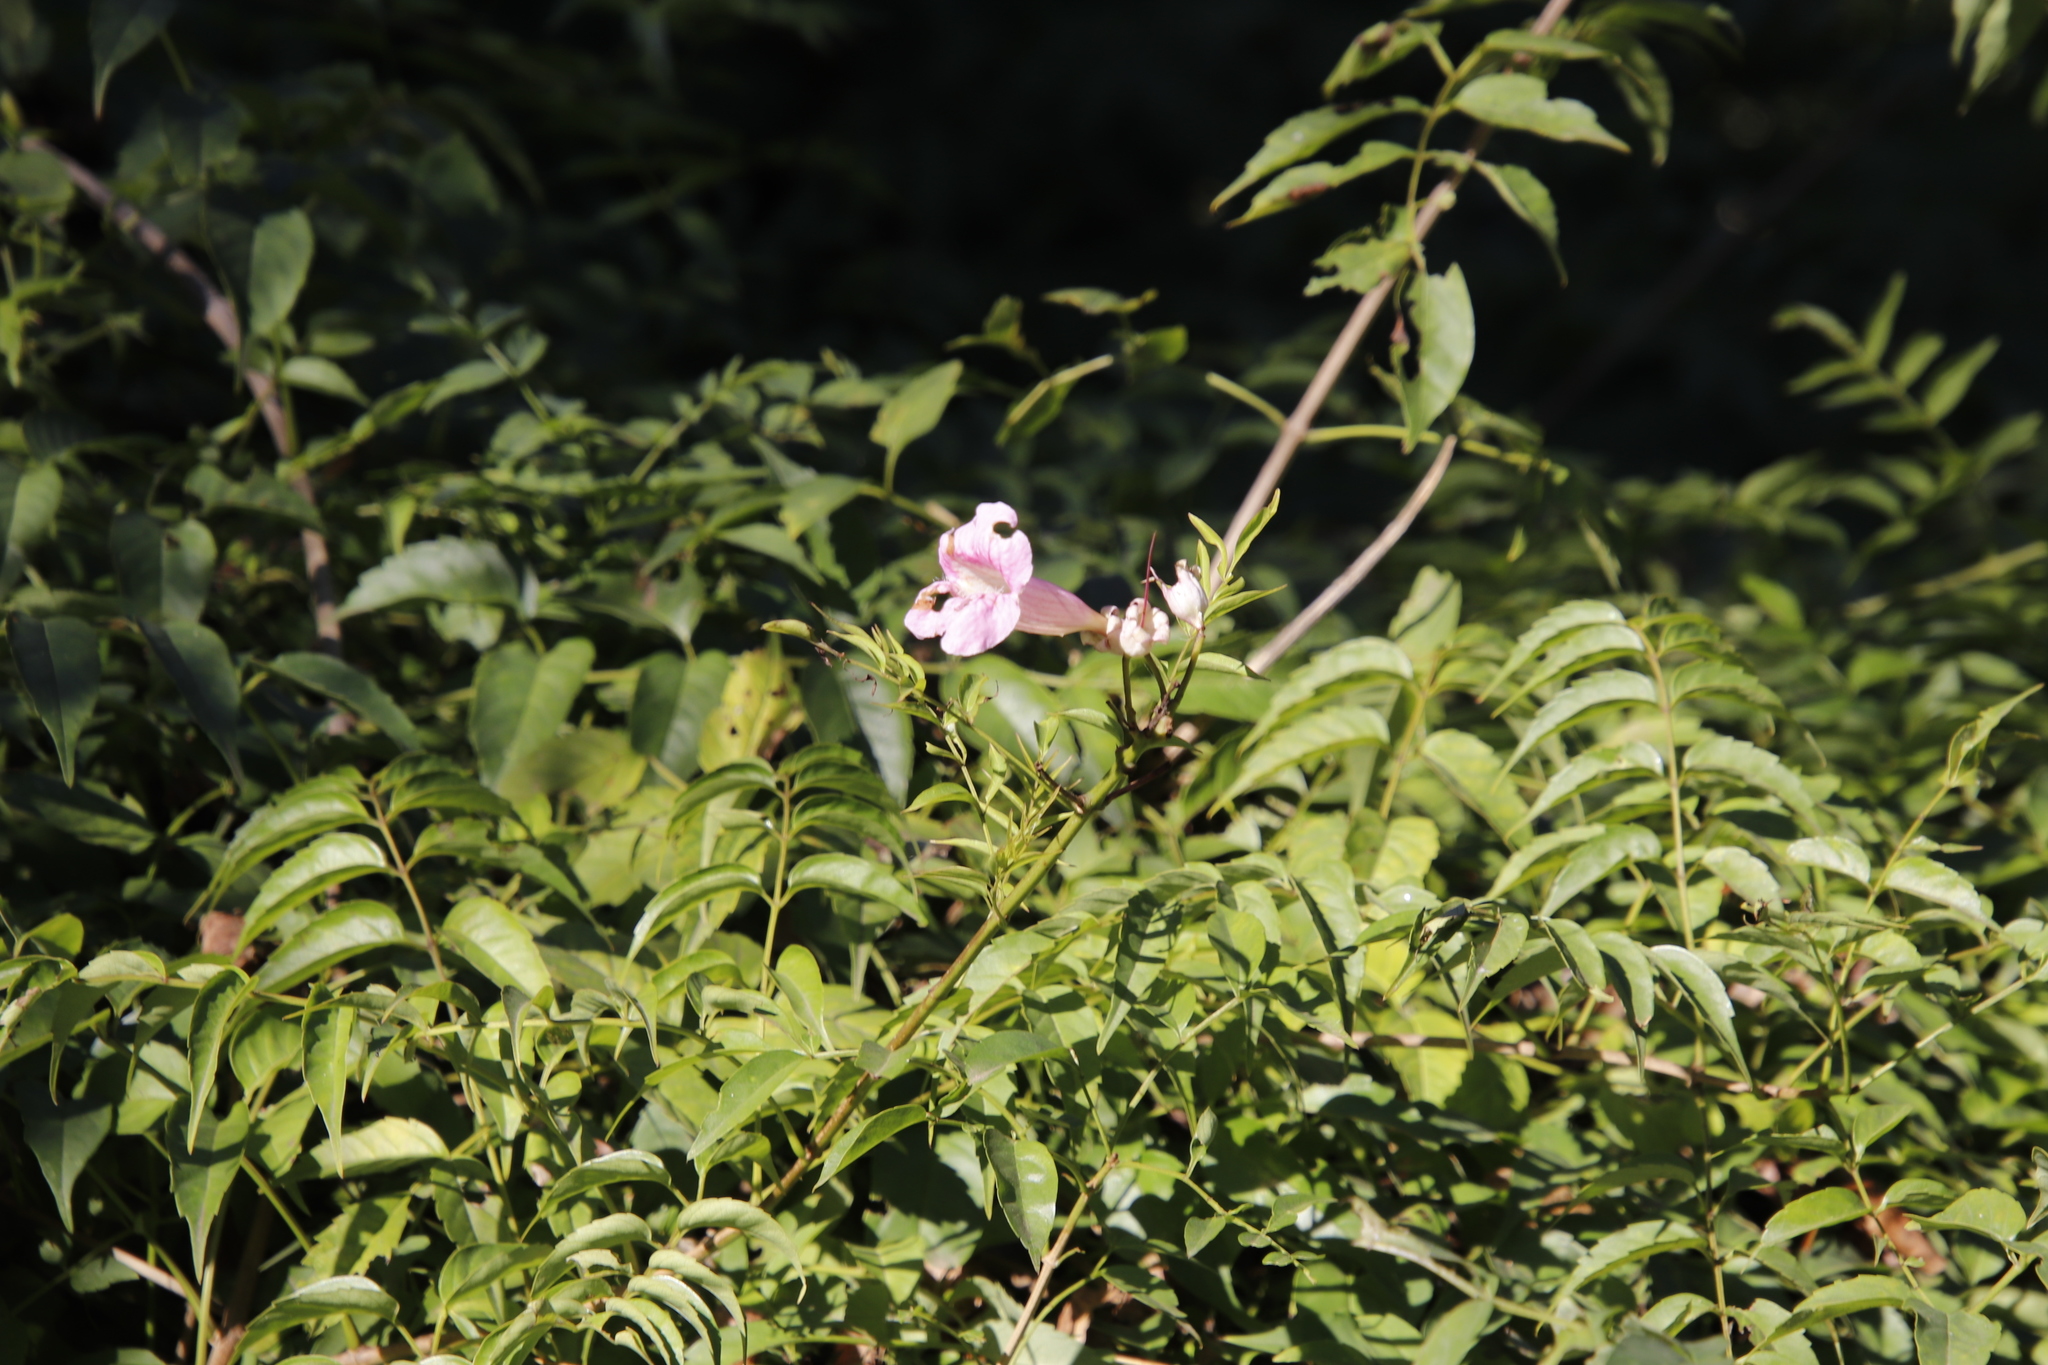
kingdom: Plantae
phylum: Tracheophyta
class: Magnoliopsida
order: Lamiales
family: Bignoniaceae
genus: Podranea
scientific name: Podranea ricasoliana
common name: Zimbabwe creeper
